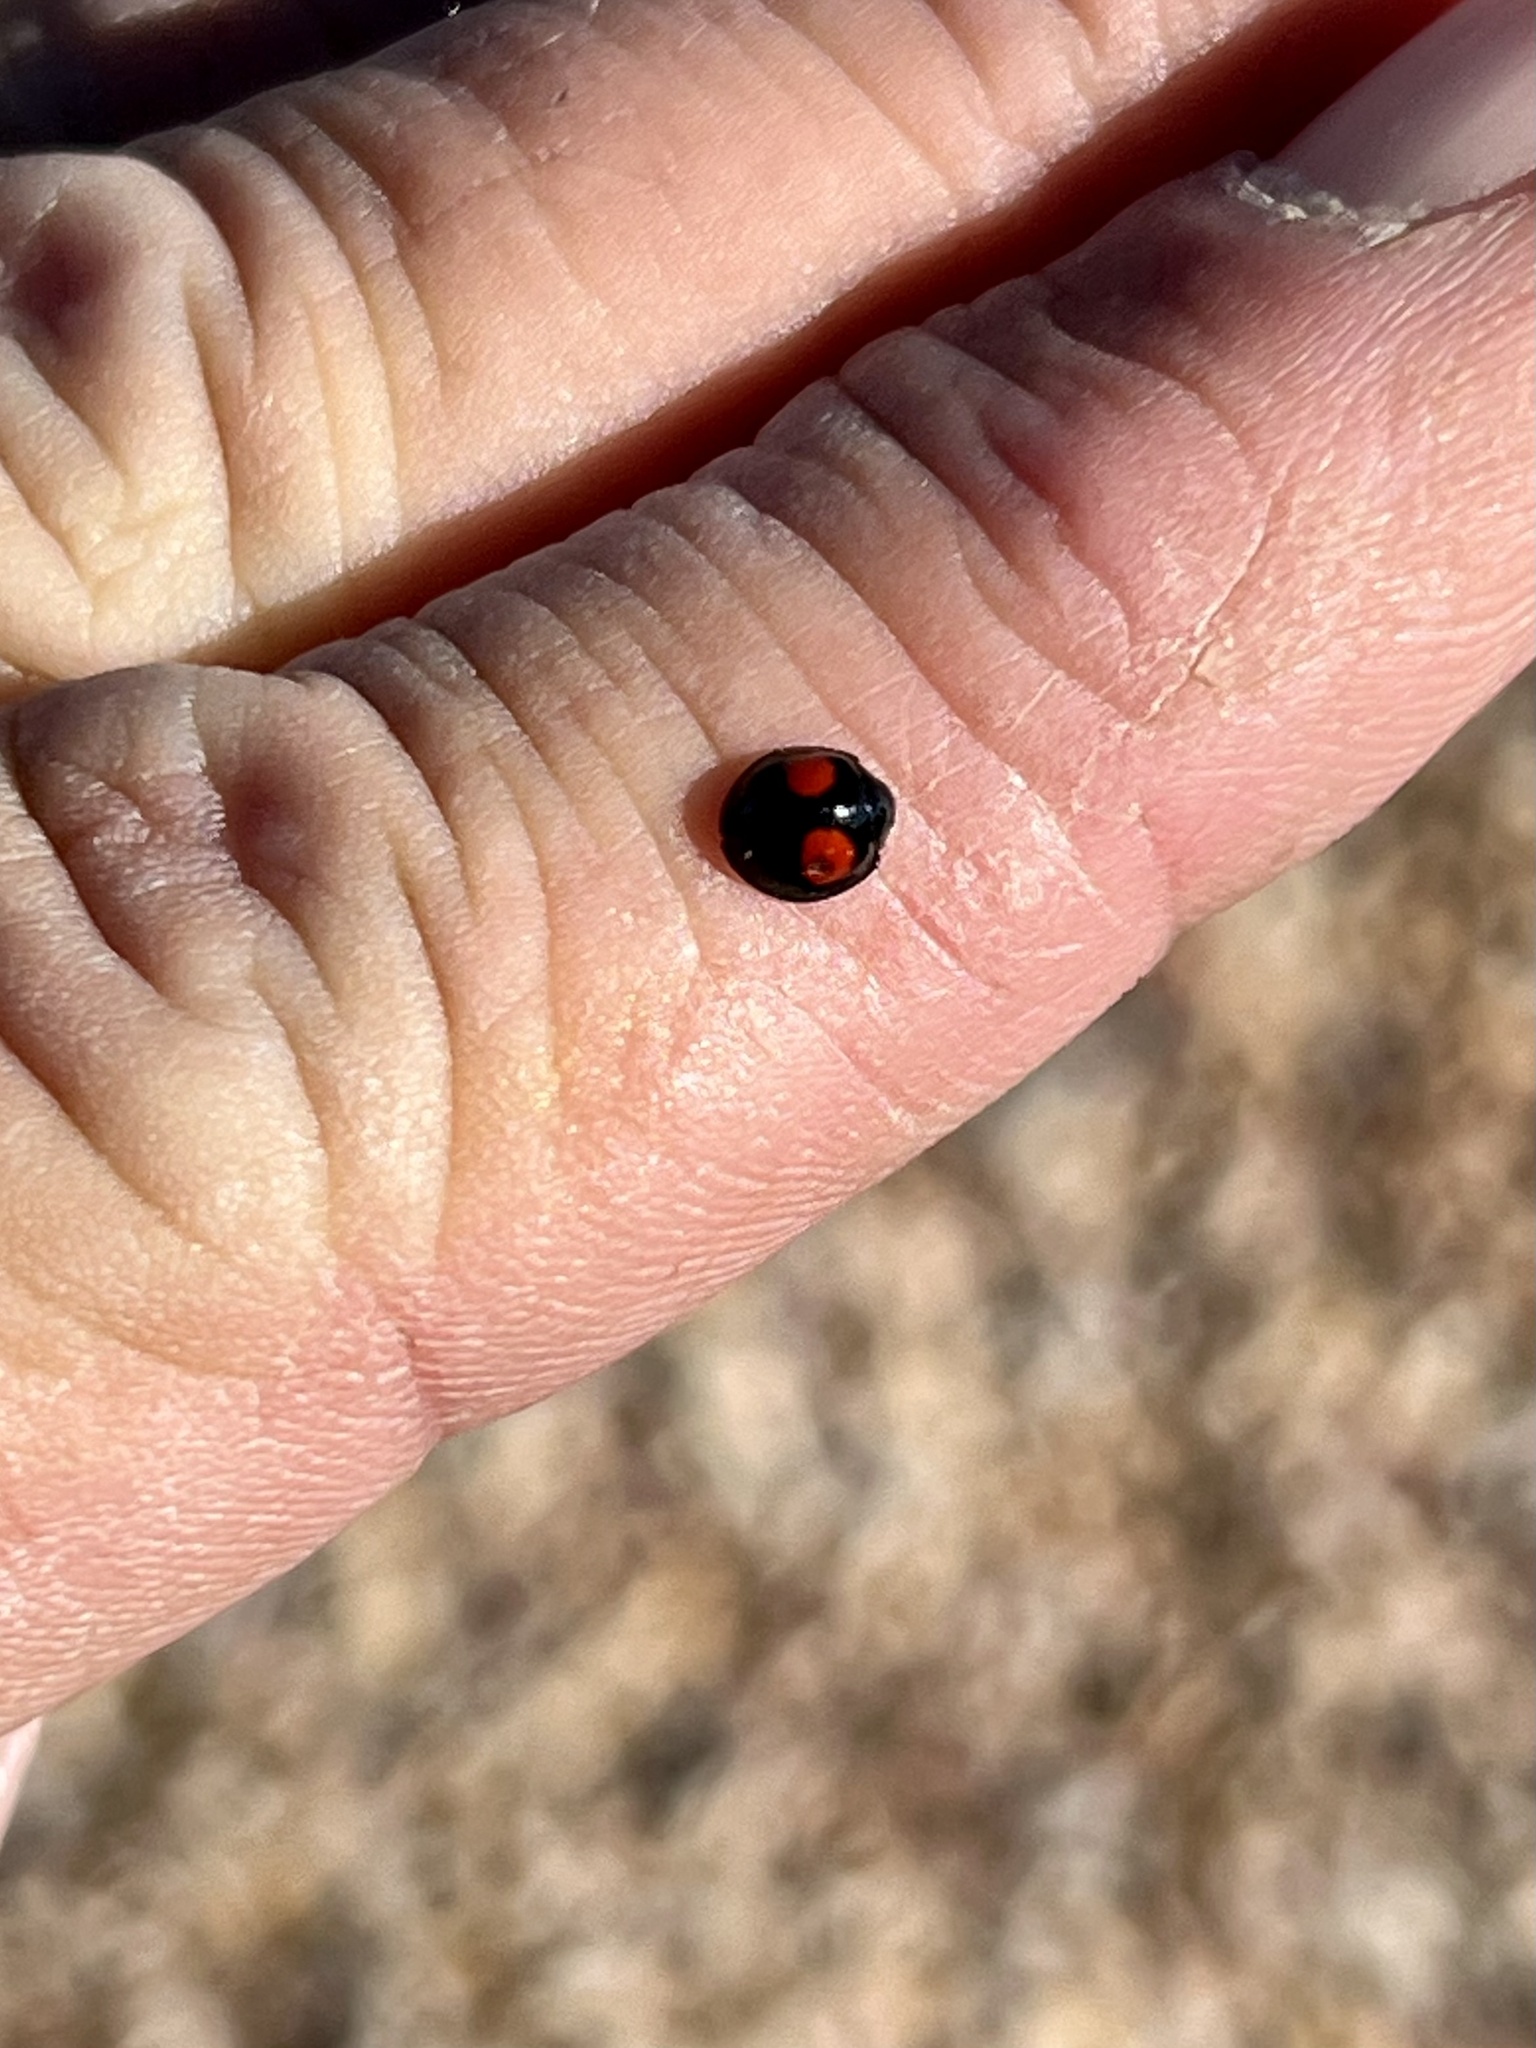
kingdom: Animalia
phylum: Arthropoda
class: Insecta
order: Coleoptera
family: Coccinellidae
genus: Chilocorus
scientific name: Chilocorus cacti
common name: Cactus lady beetle
